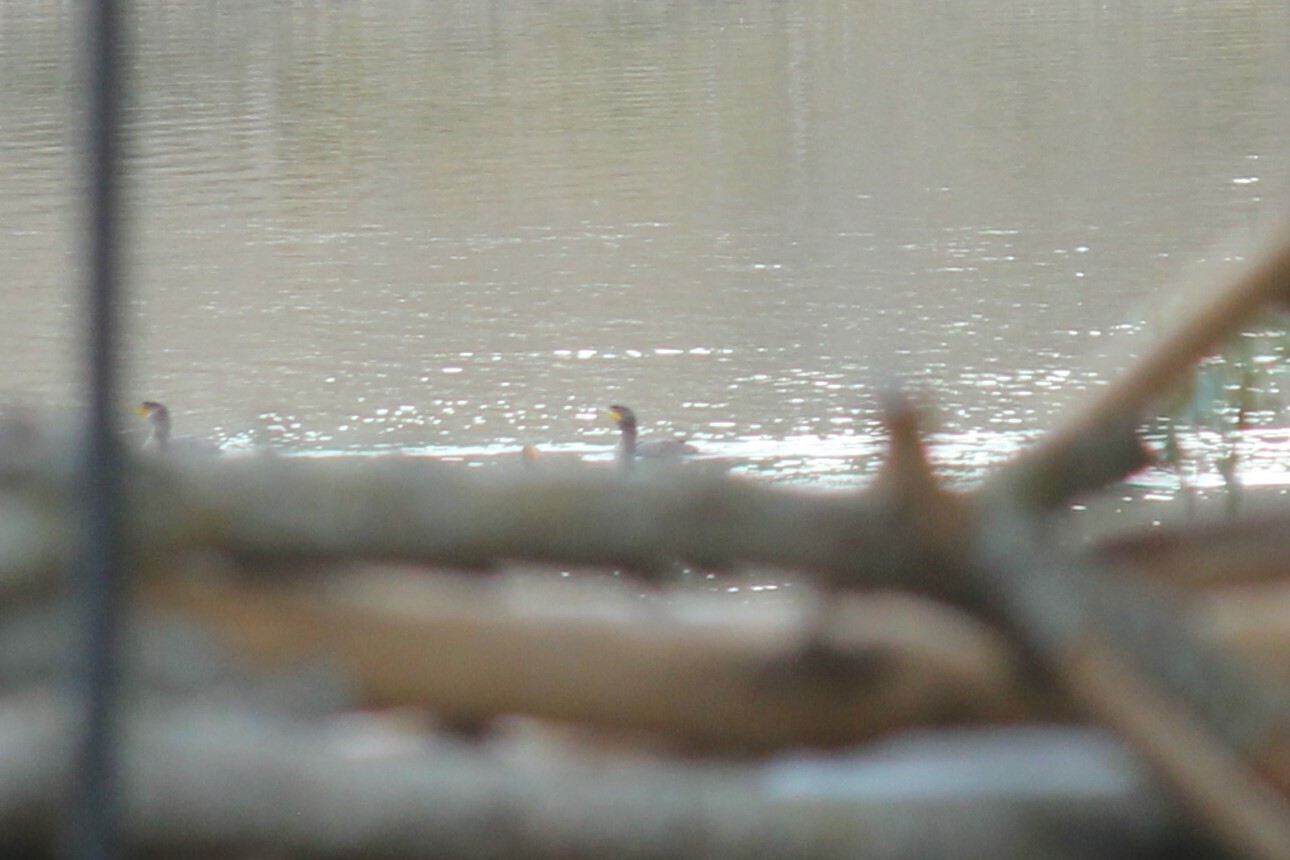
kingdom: Animalia
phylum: Chordata
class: Aves
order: Suliformes
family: Phalacrocoracidae
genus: Phalacrocorax
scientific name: Phalacrocorax auritus
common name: Double-crested cormorant
